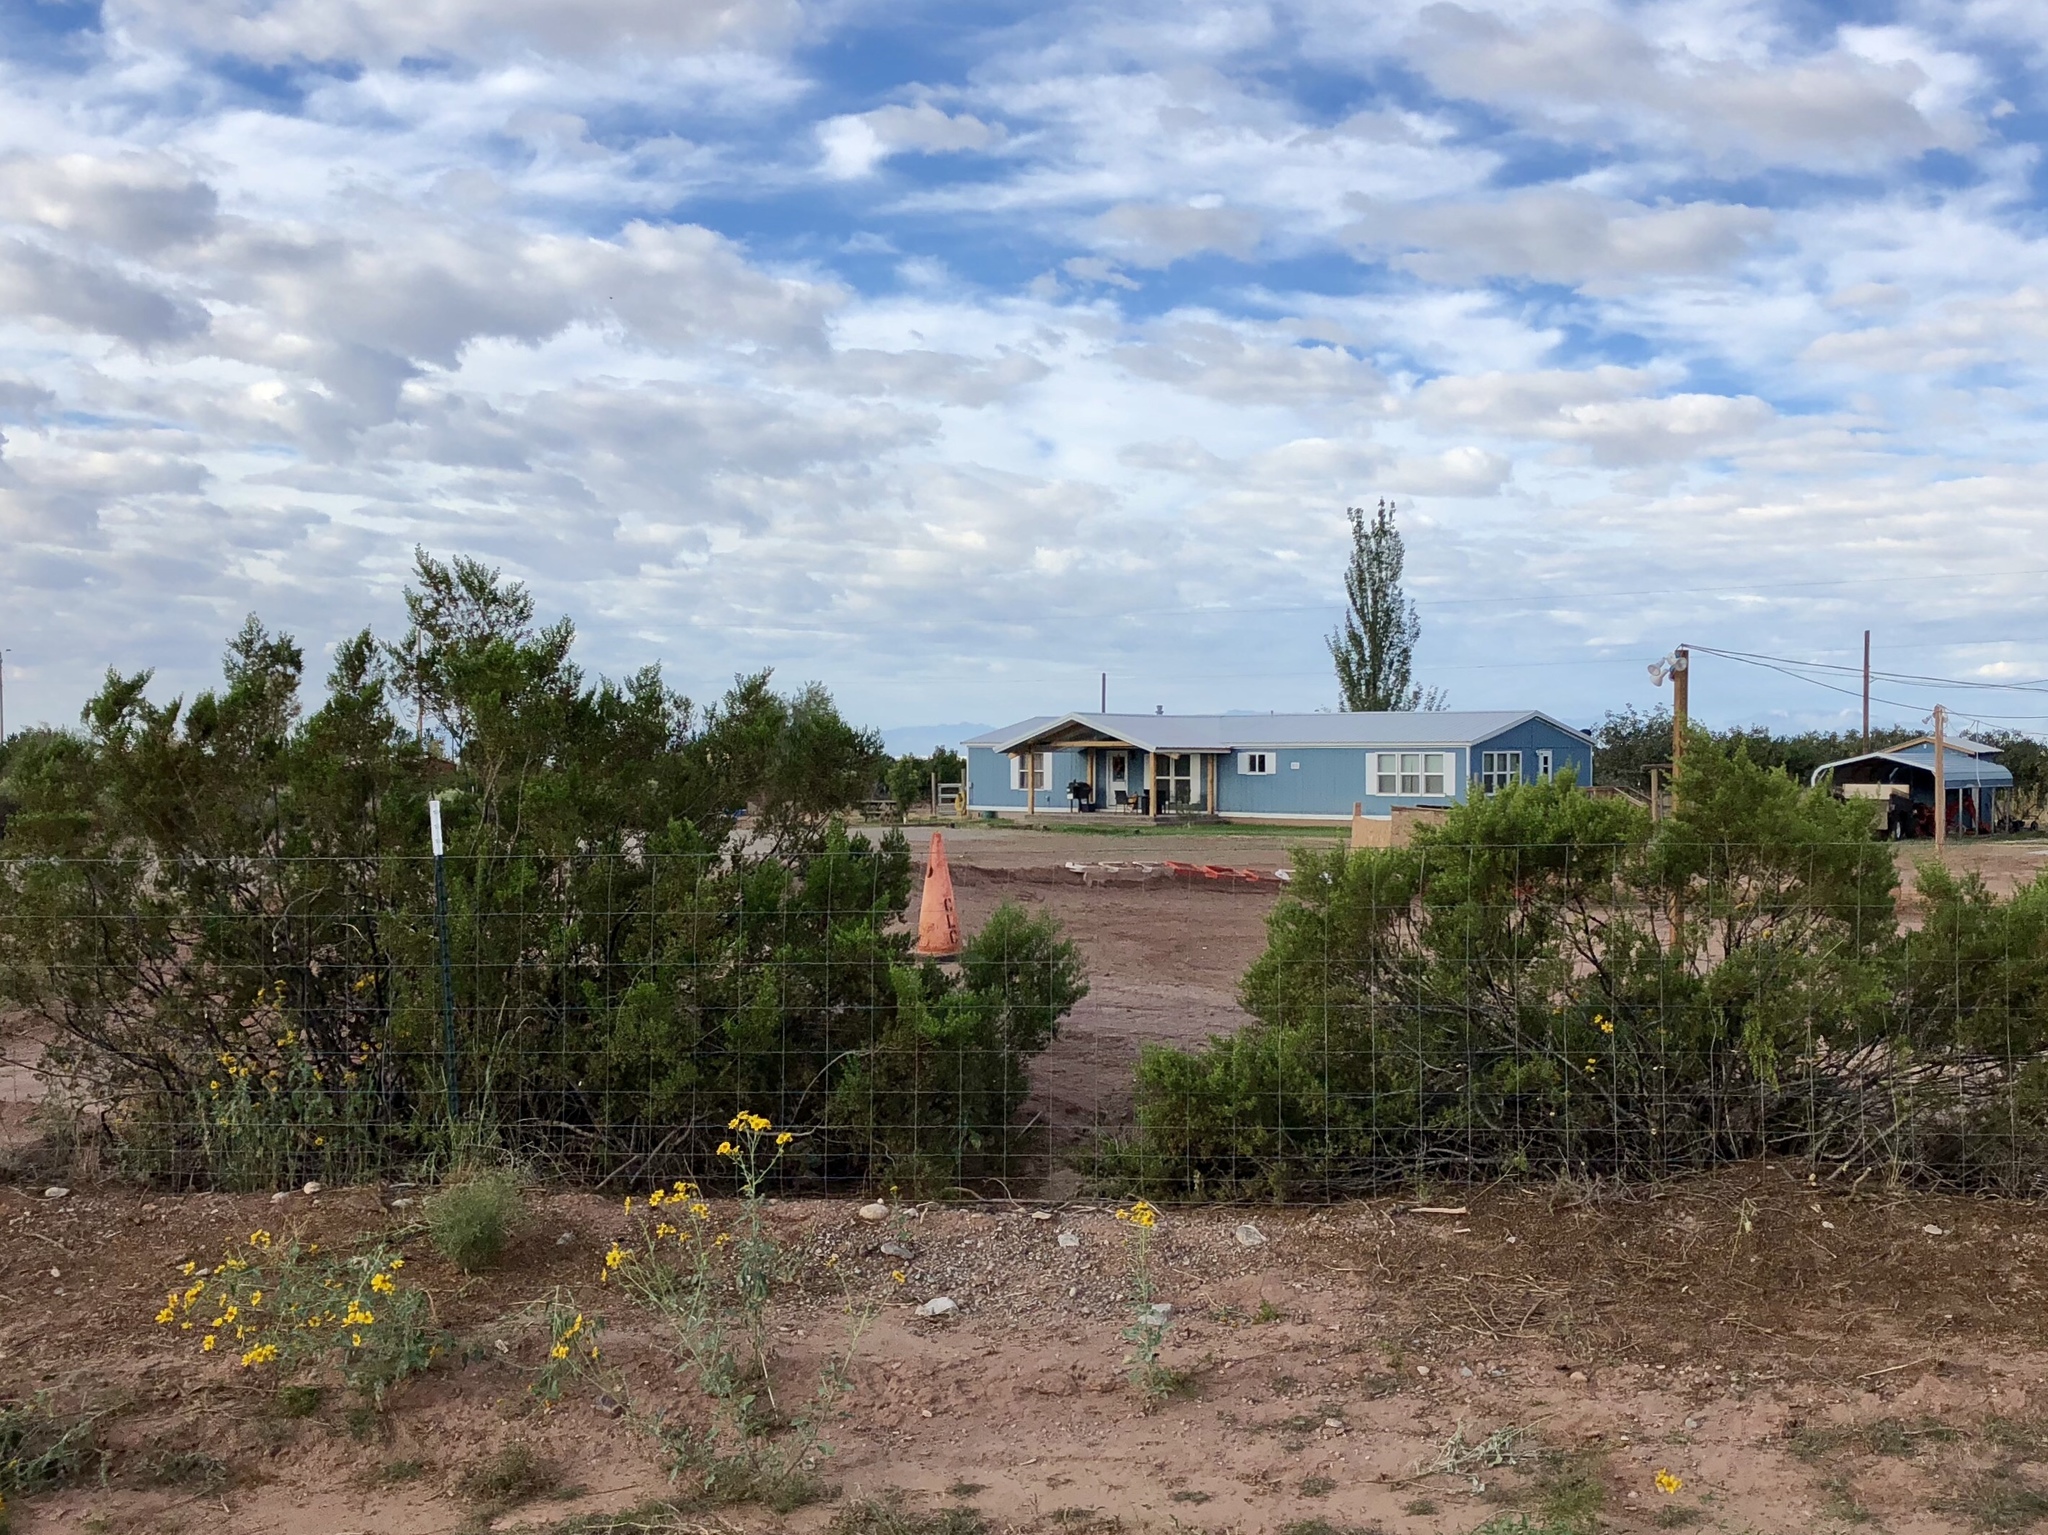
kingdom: Plantae
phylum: Tracheophyta
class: Magnoliopsida
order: Zygophyllales
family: Zygophyllaceae
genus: Larrea
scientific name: Larrea tridentata
